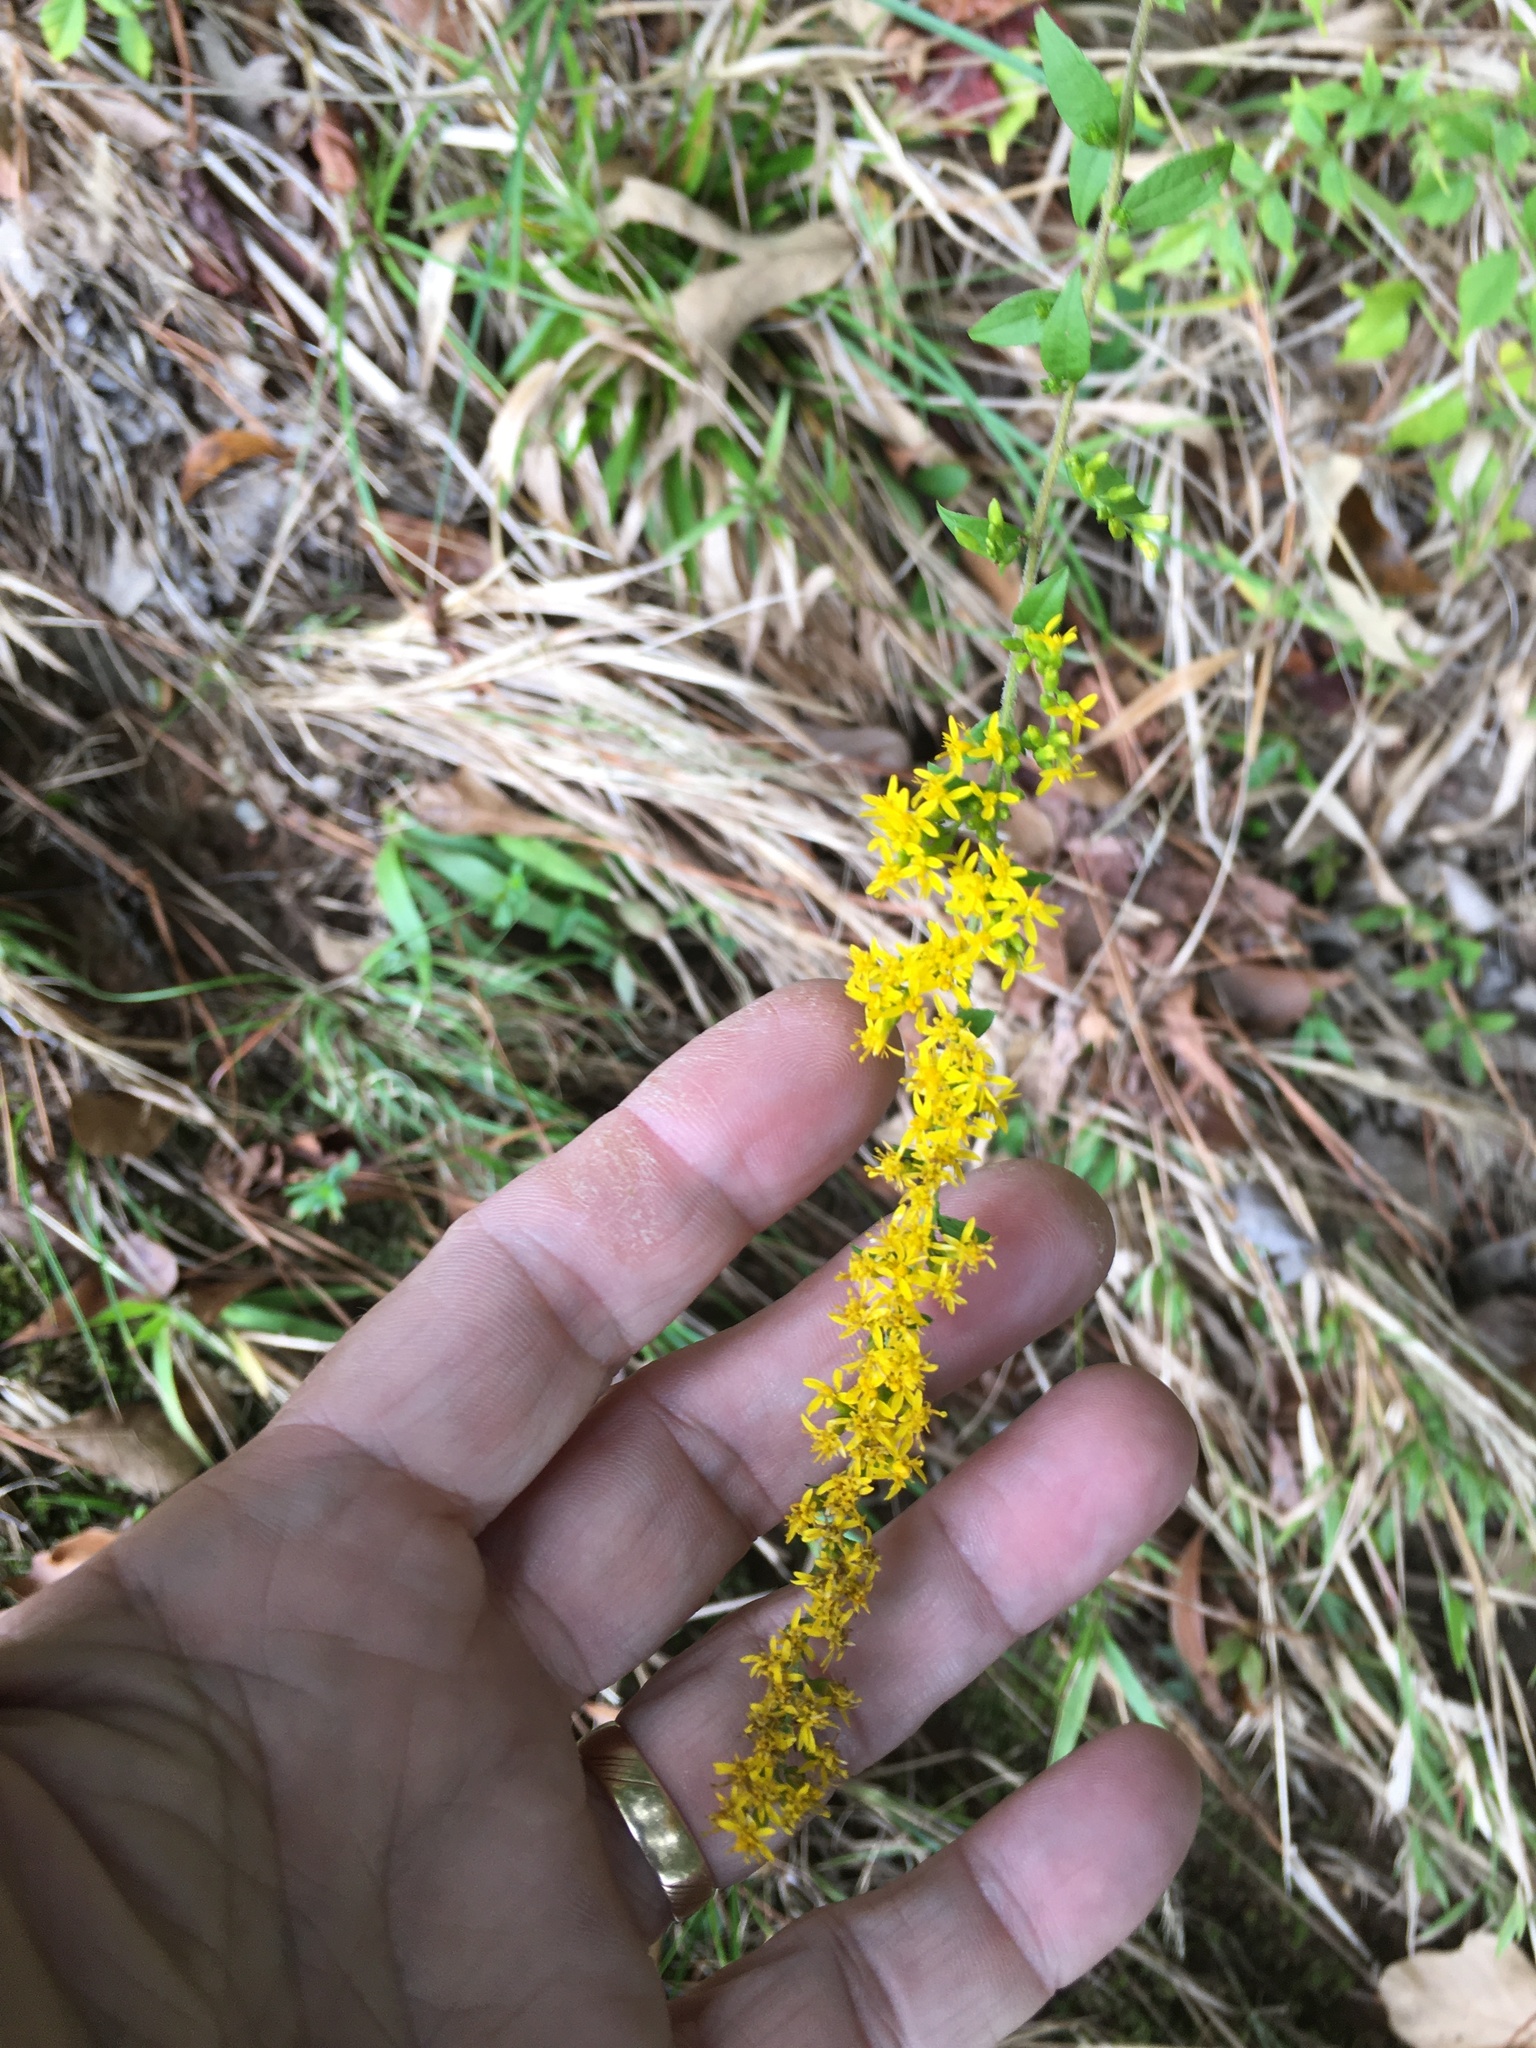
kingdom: Plantae
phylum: Tracheophyta
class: Magnoliopsida
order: Asterales
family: Asteraceae
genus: Solidago
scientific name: Solidago rugosa
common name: Rough-stemmed goldenrod
